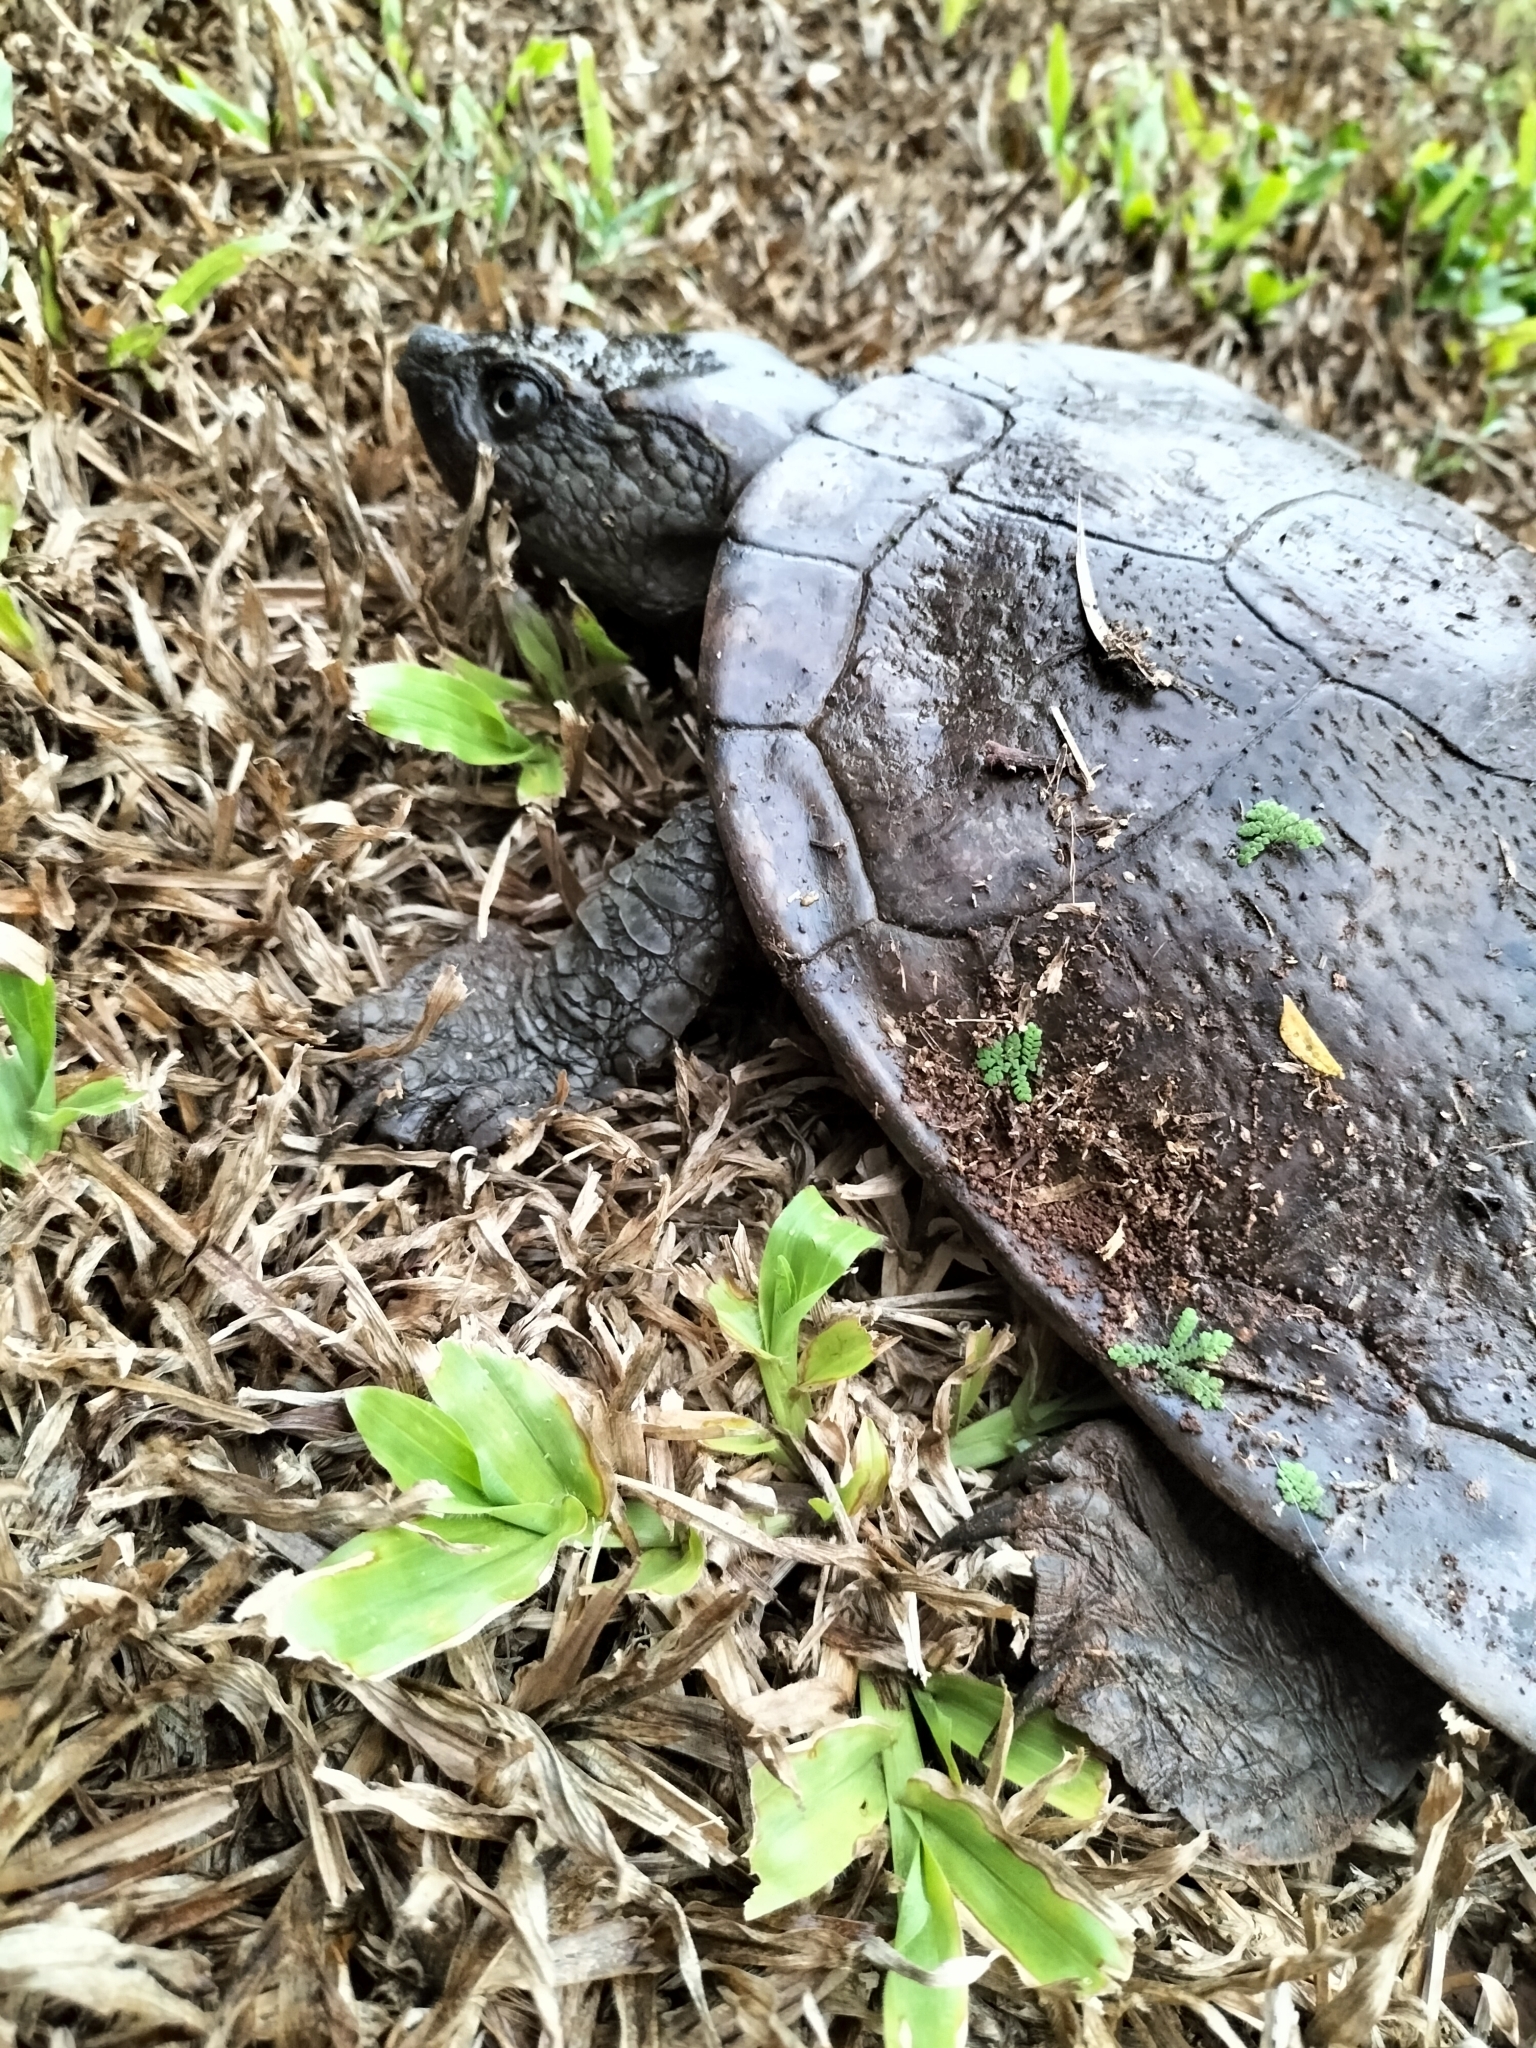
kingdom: Animalia
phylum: Chordata
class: Testudines
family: Chelidae
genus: Myuchelys
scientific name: Myuchelys latisternum
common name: Serrated snapping turtle
